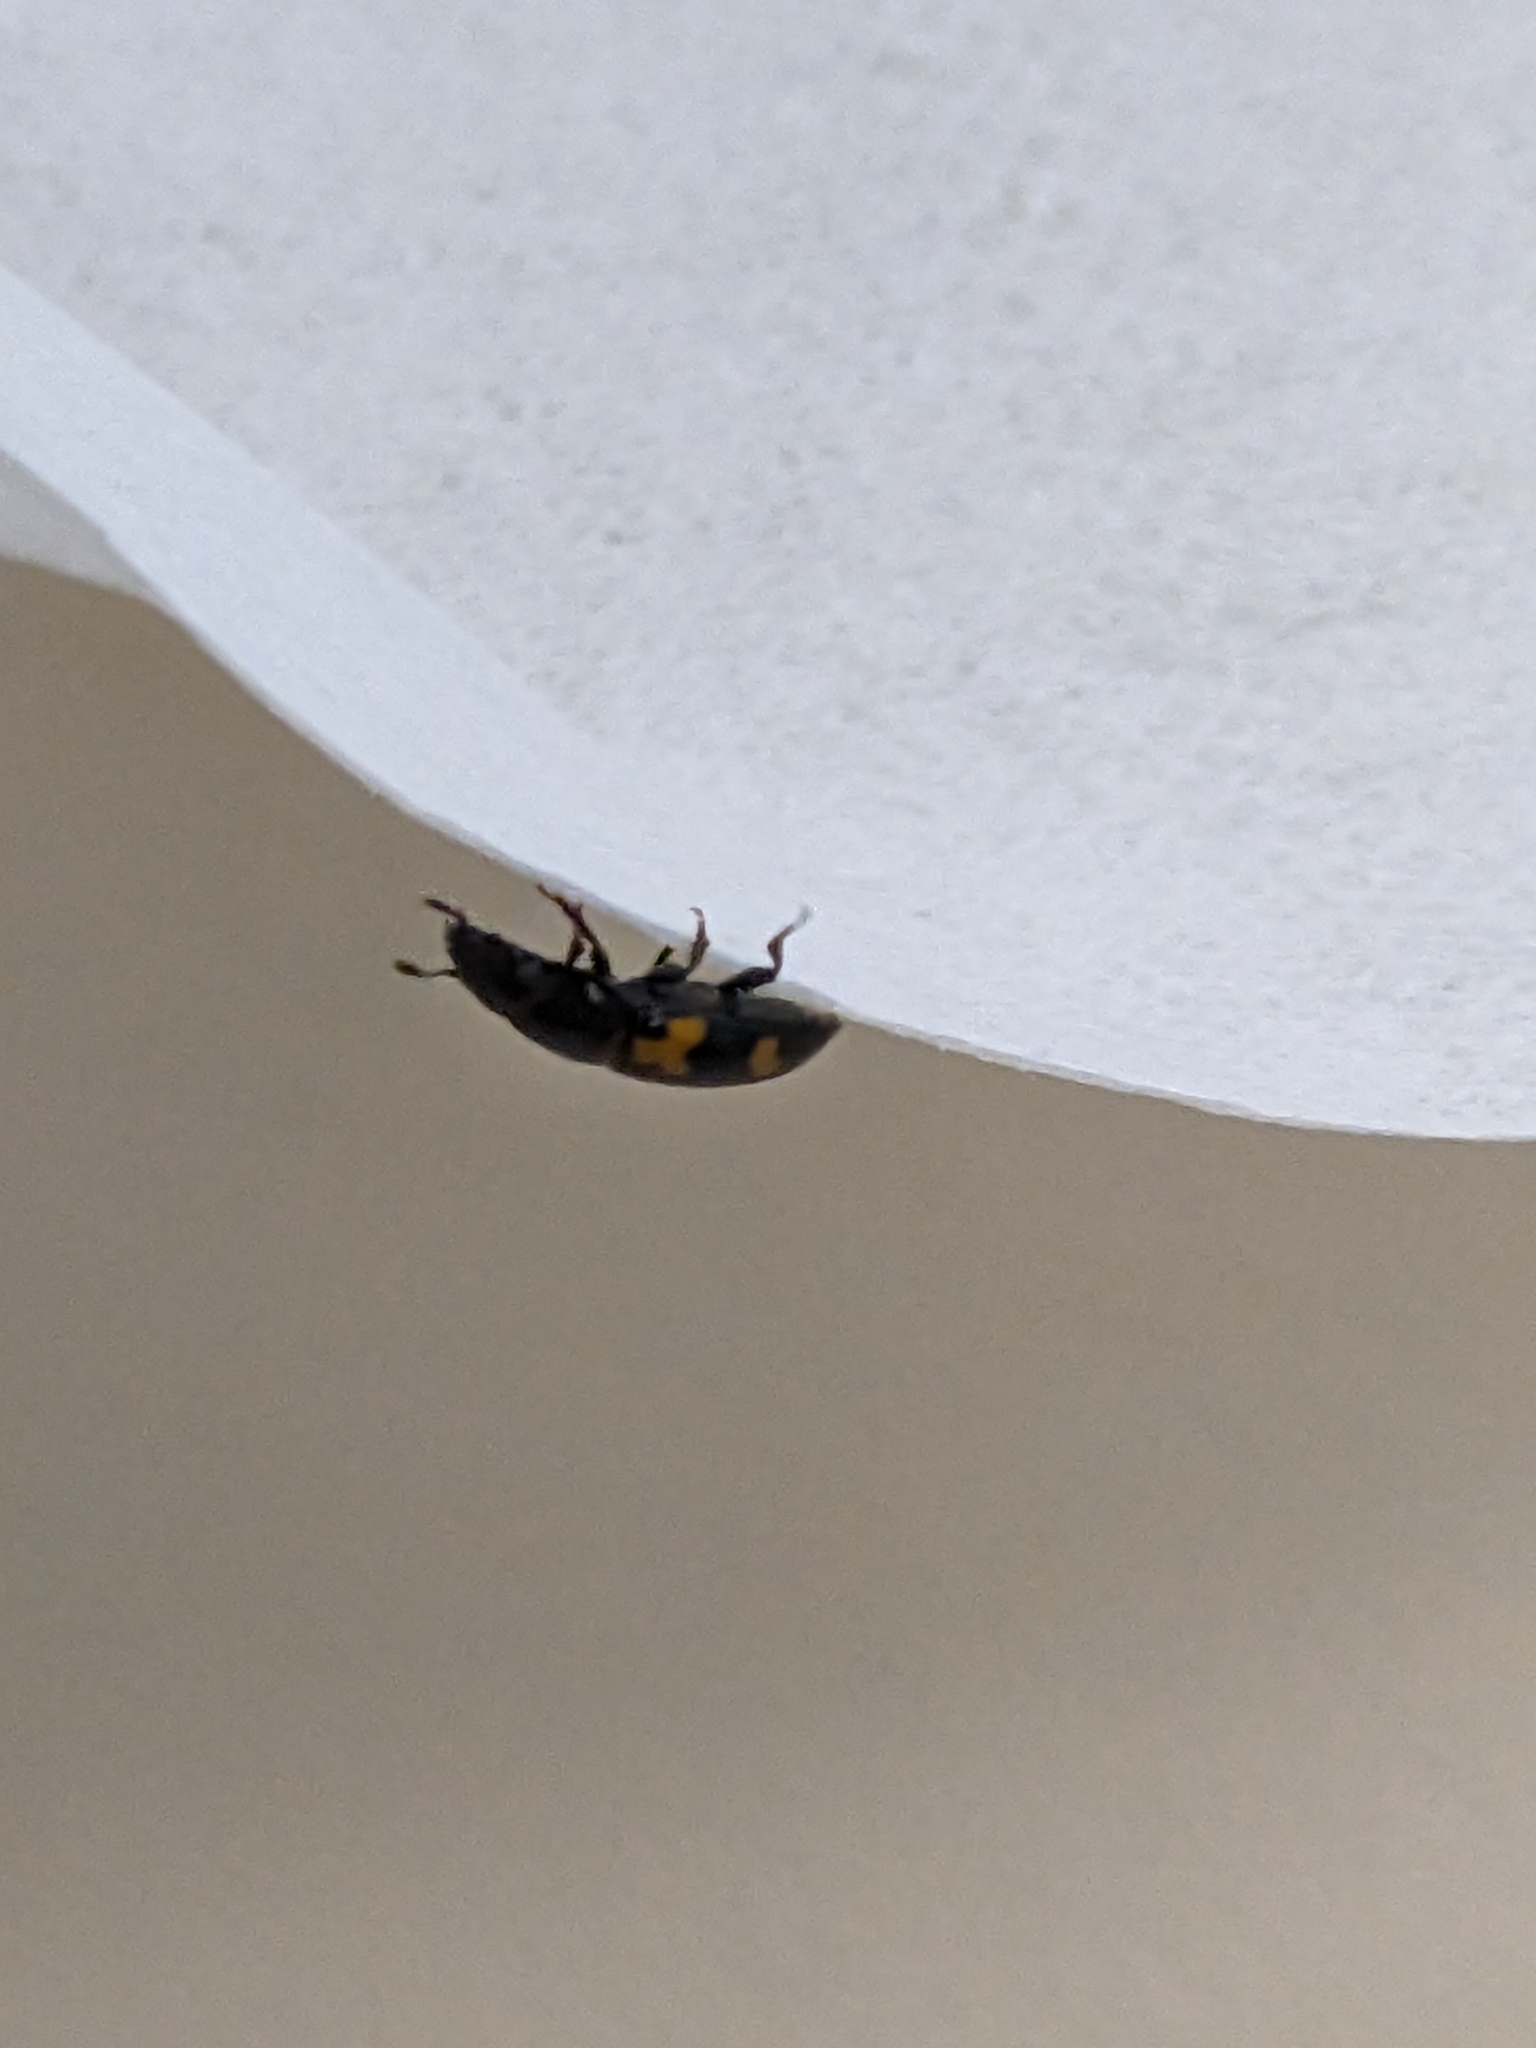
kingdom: Animalia
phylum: Arthropoda
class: Insecta
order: Coleoptera
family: Nitidulidae
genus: Glischrochilus
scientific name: Glischrochilus fasciatus
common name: Picnic beetle
